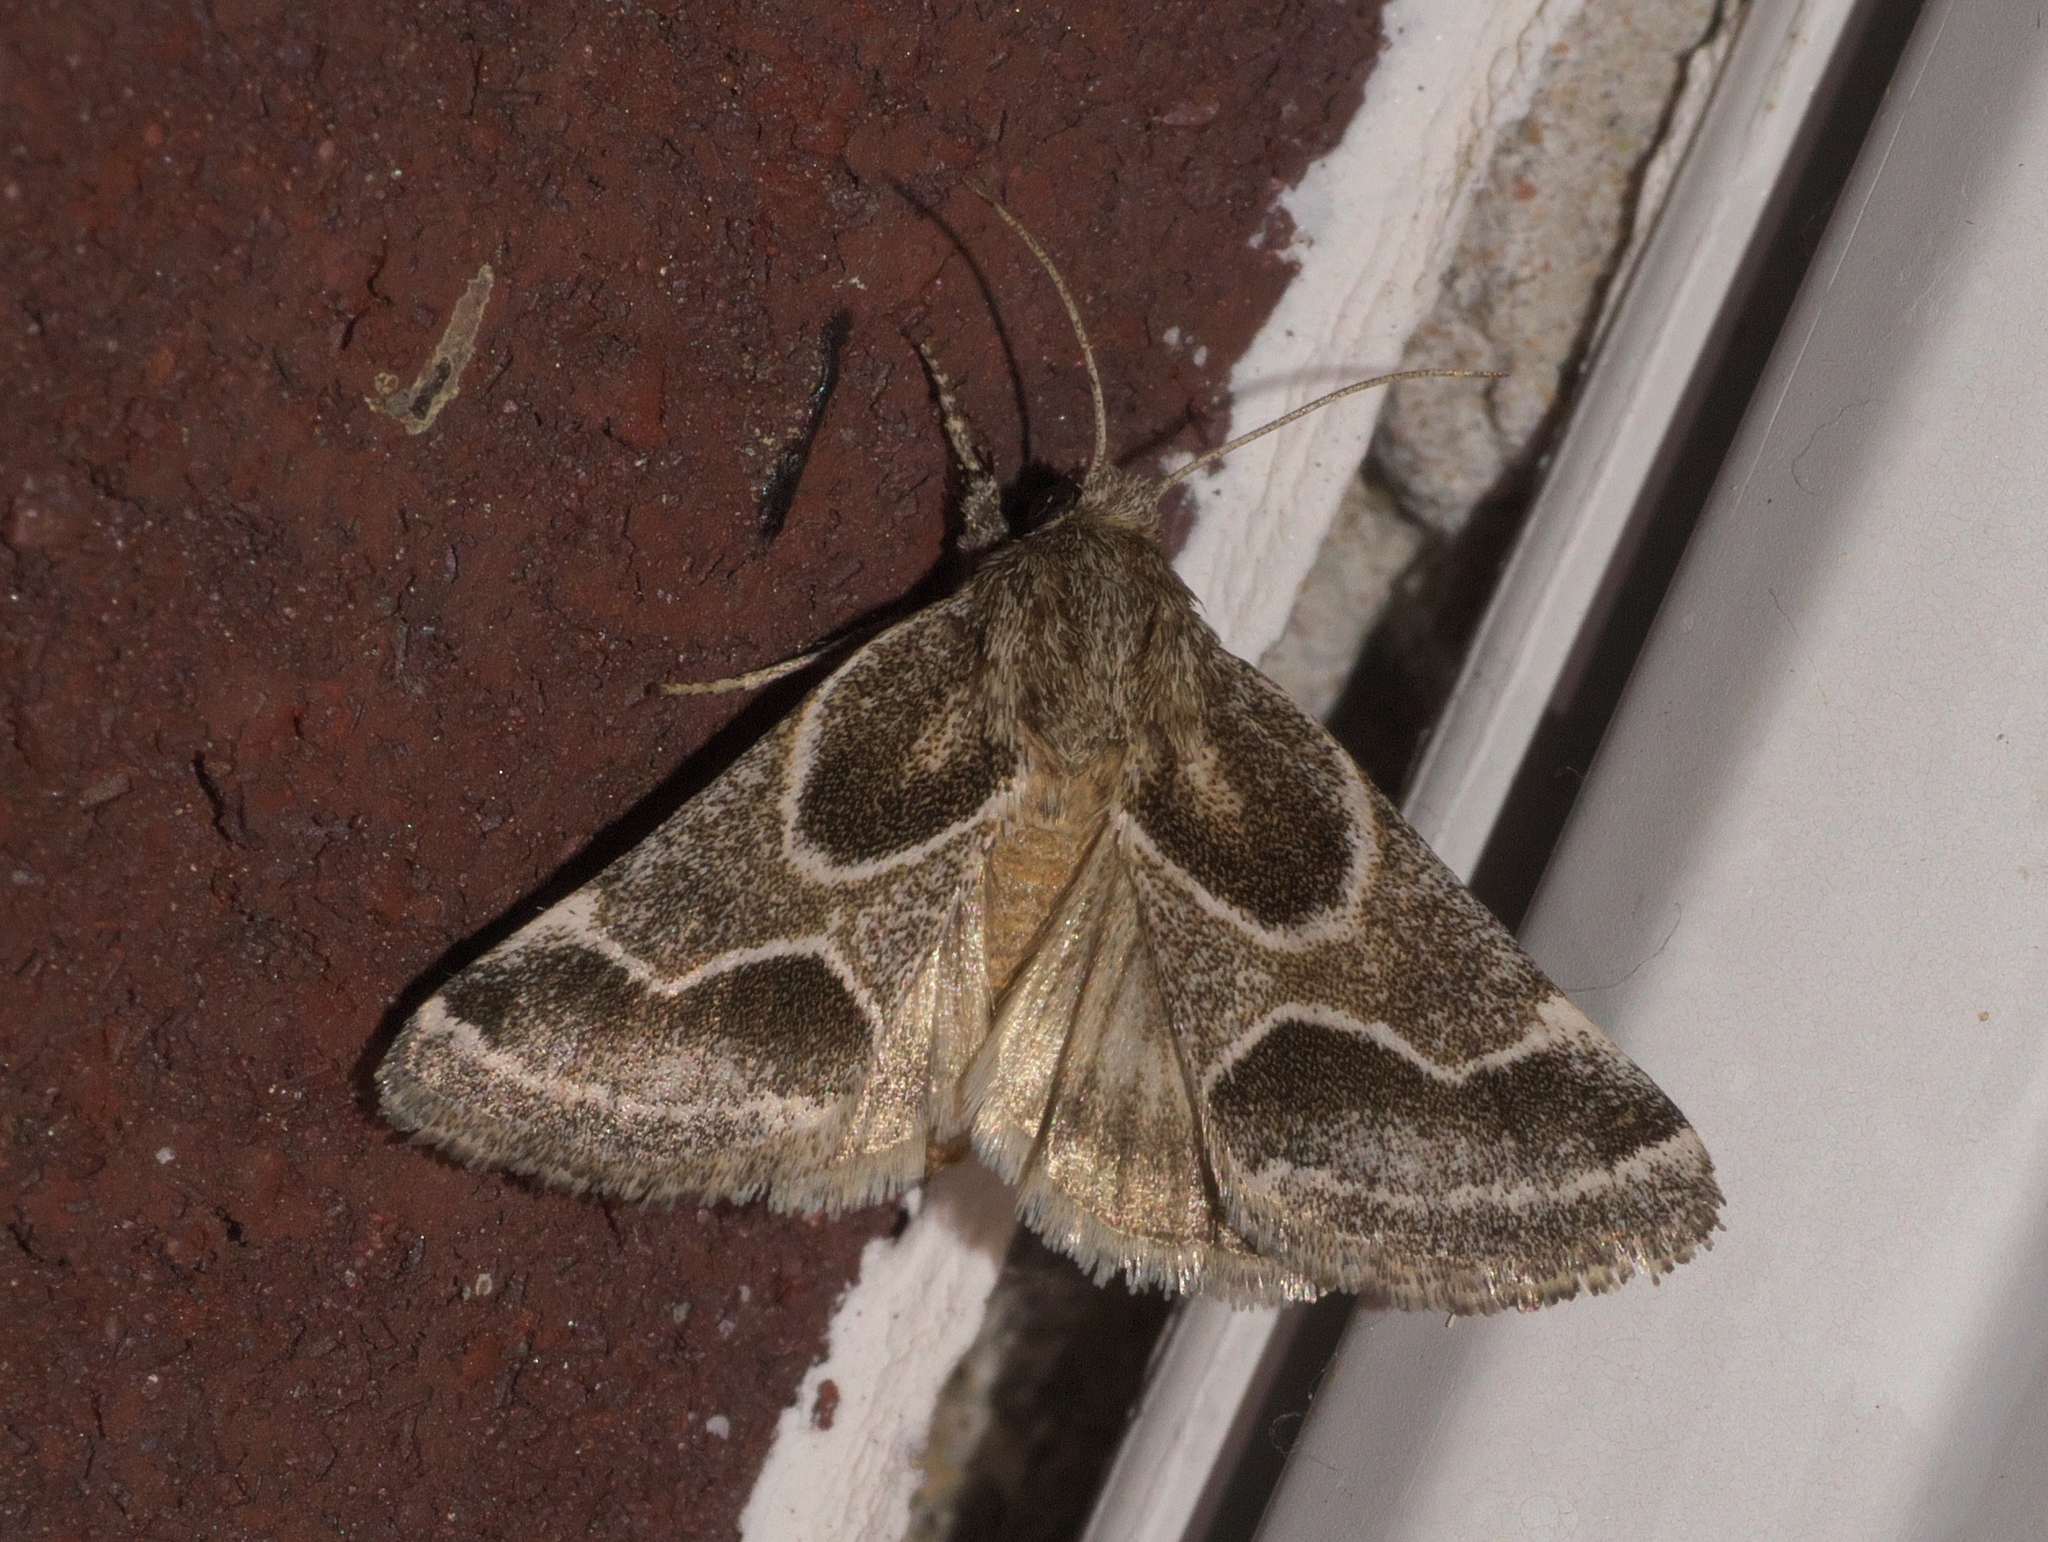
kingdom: Animalia
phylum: Arthropoda
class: Insecta
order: Lepidoptera
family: Noctuidae
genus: Schinia
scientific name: Schinia rivulosa
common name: Scarce meal-moth
